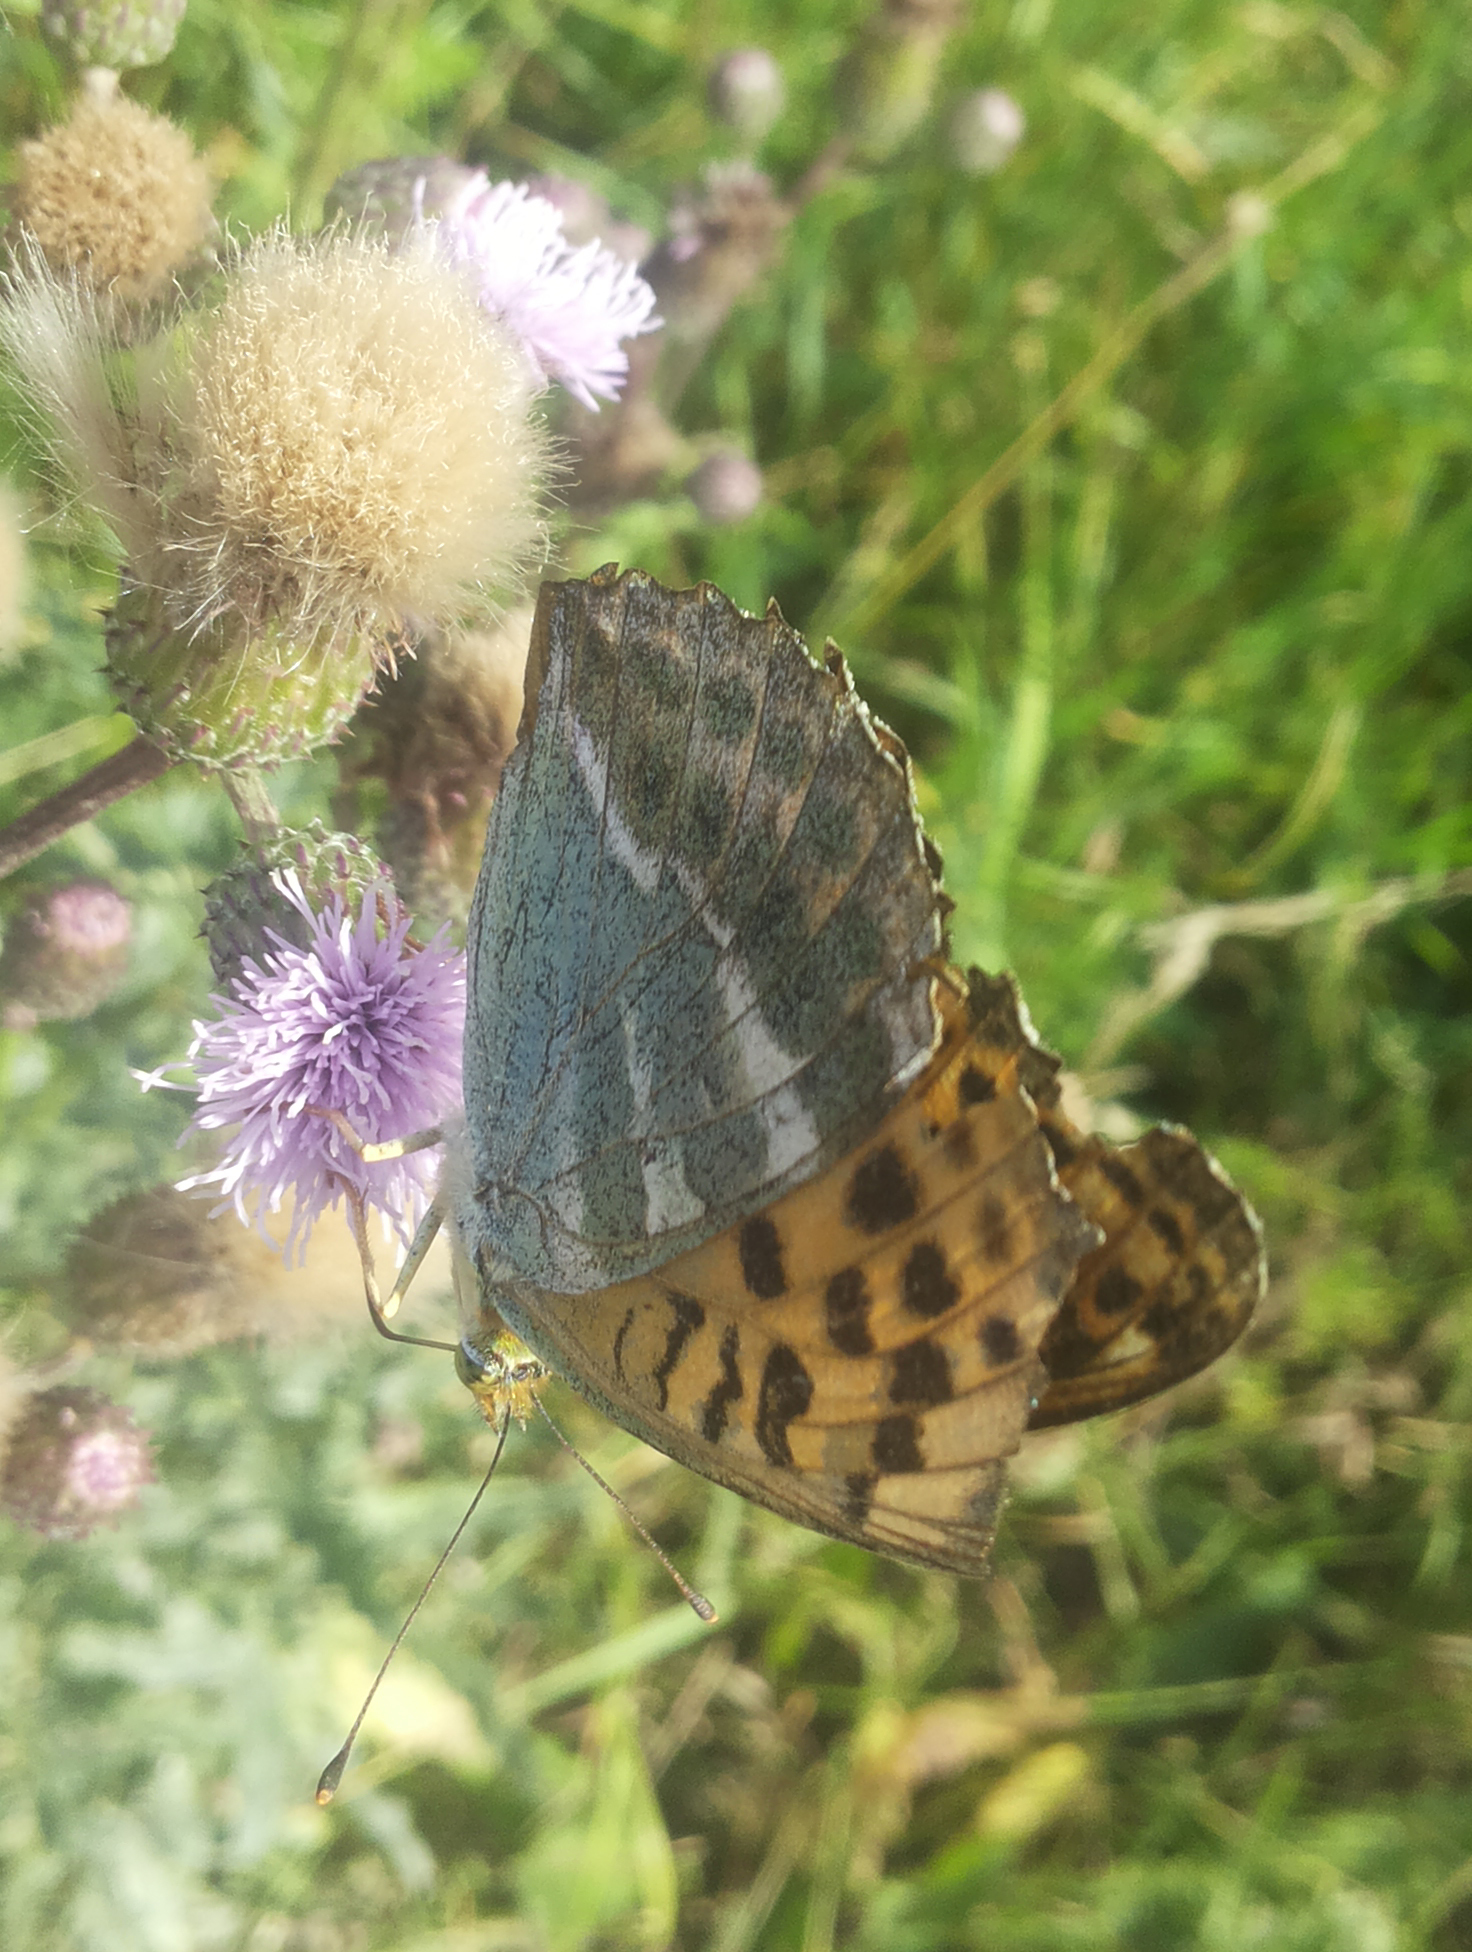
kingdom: Animalia
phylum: Arthropoda
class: Insecta
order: Lepidoptera
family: Nymphalidae
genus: Argynnis
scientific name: Argynnis paphia
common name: Silver-washed fritillary
